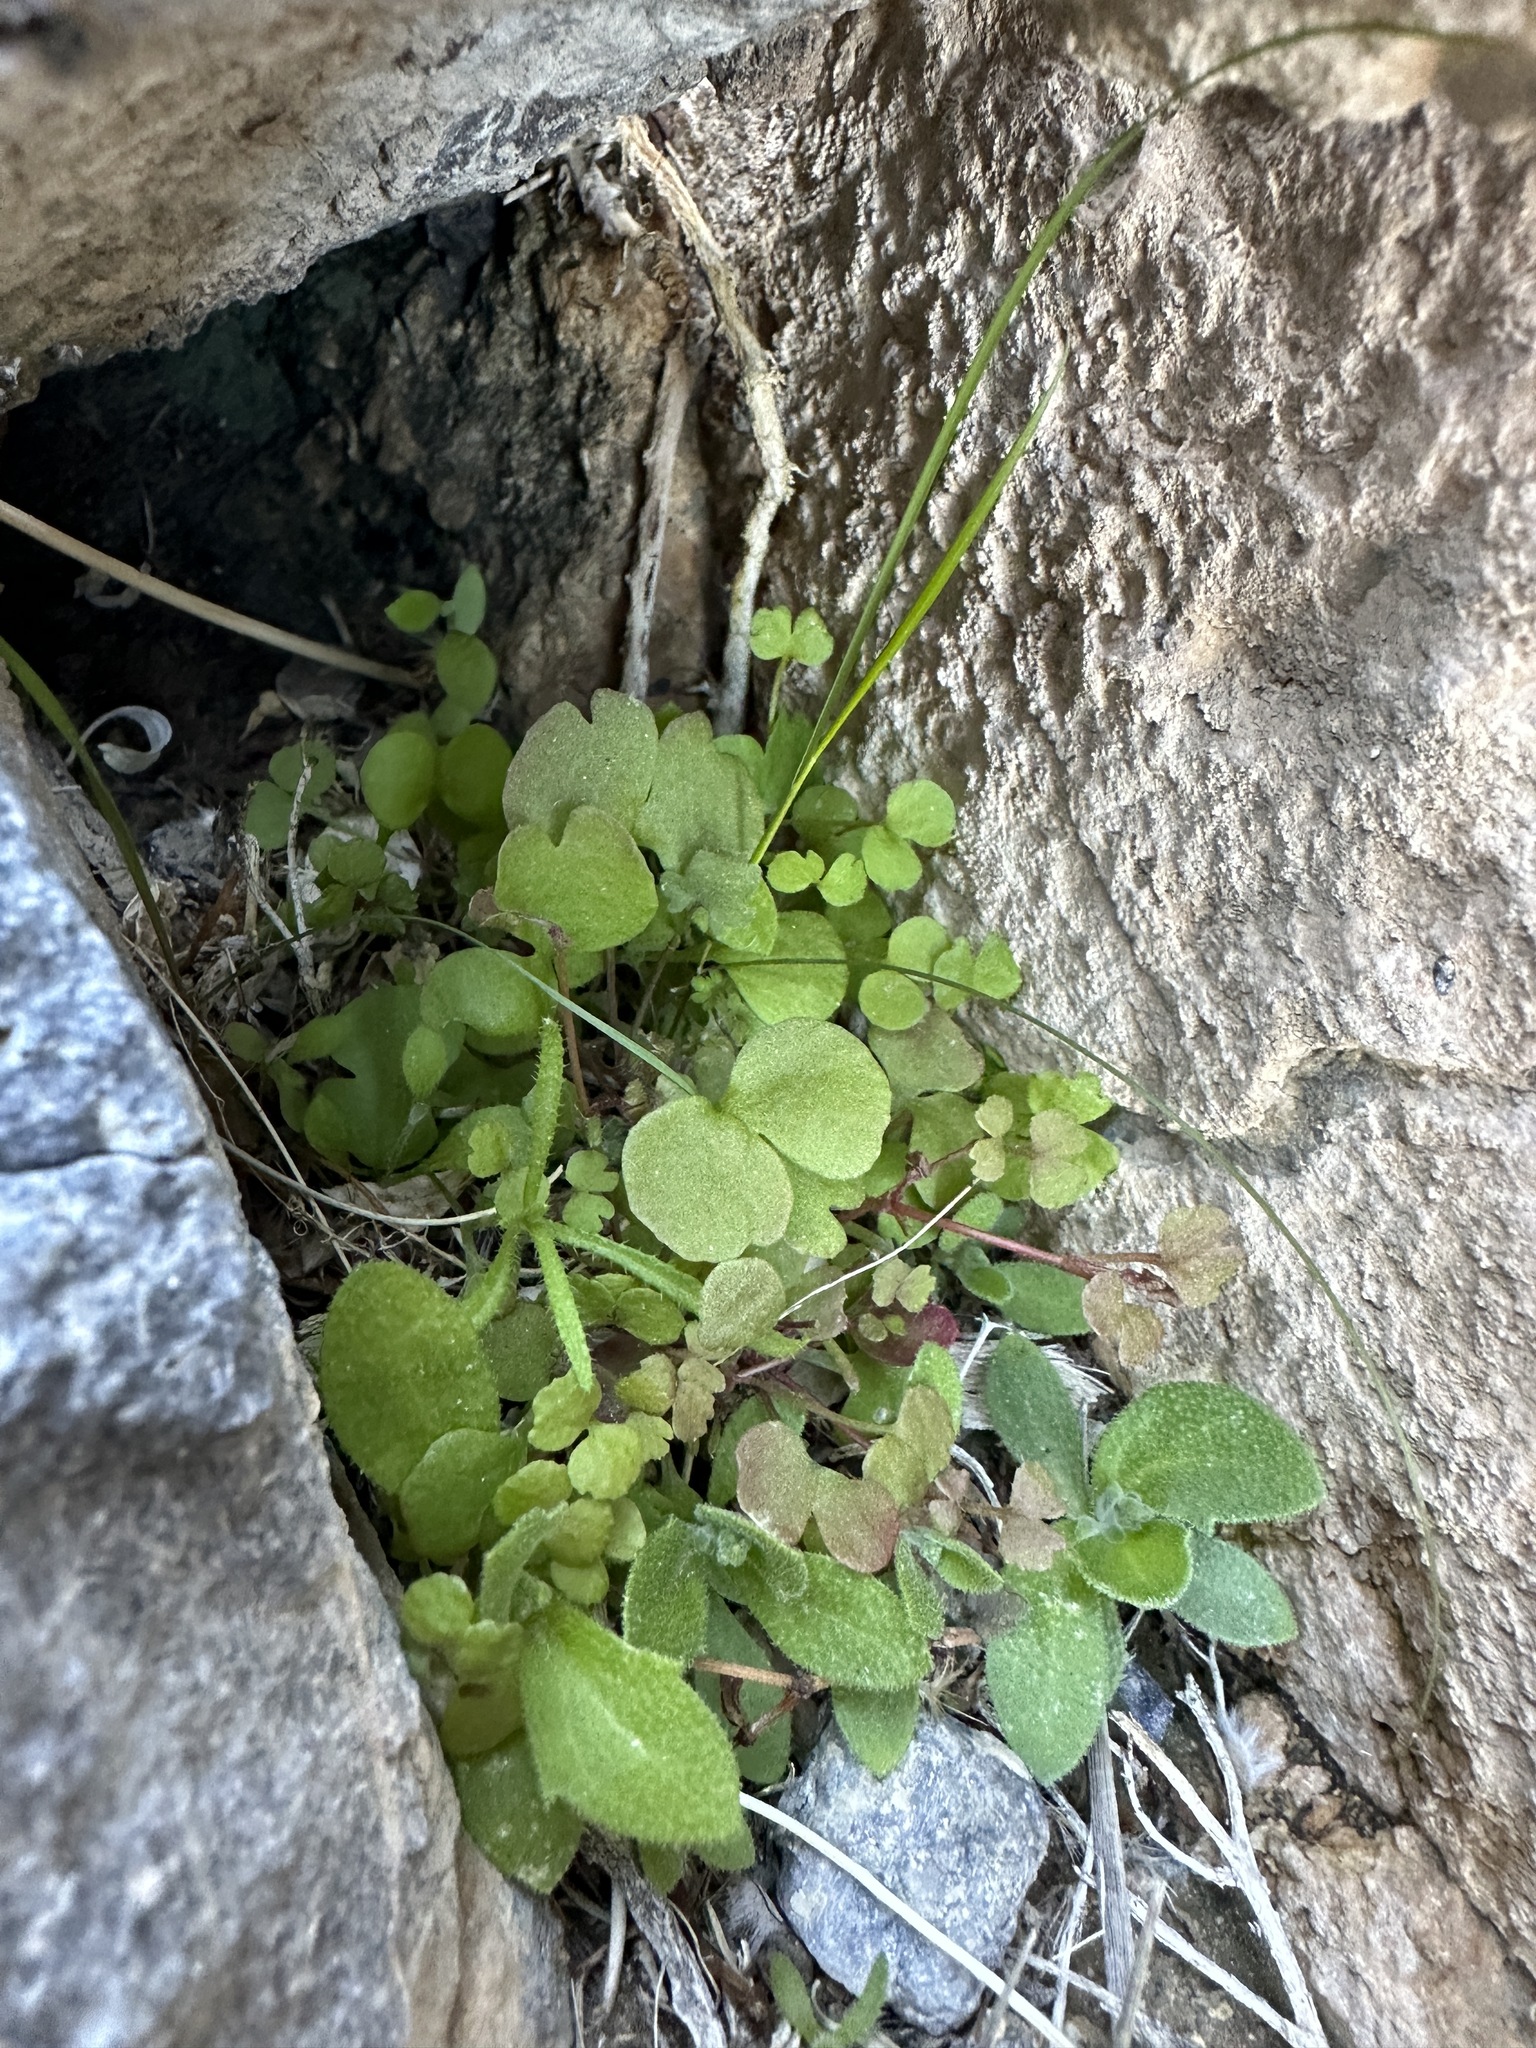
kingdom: Plantae
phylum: Tracheophyta
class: Magnoliopsida
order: Caryophyllales
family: Polygonaceae
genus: Pterostegia
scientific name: Pterostegia drymarioides
